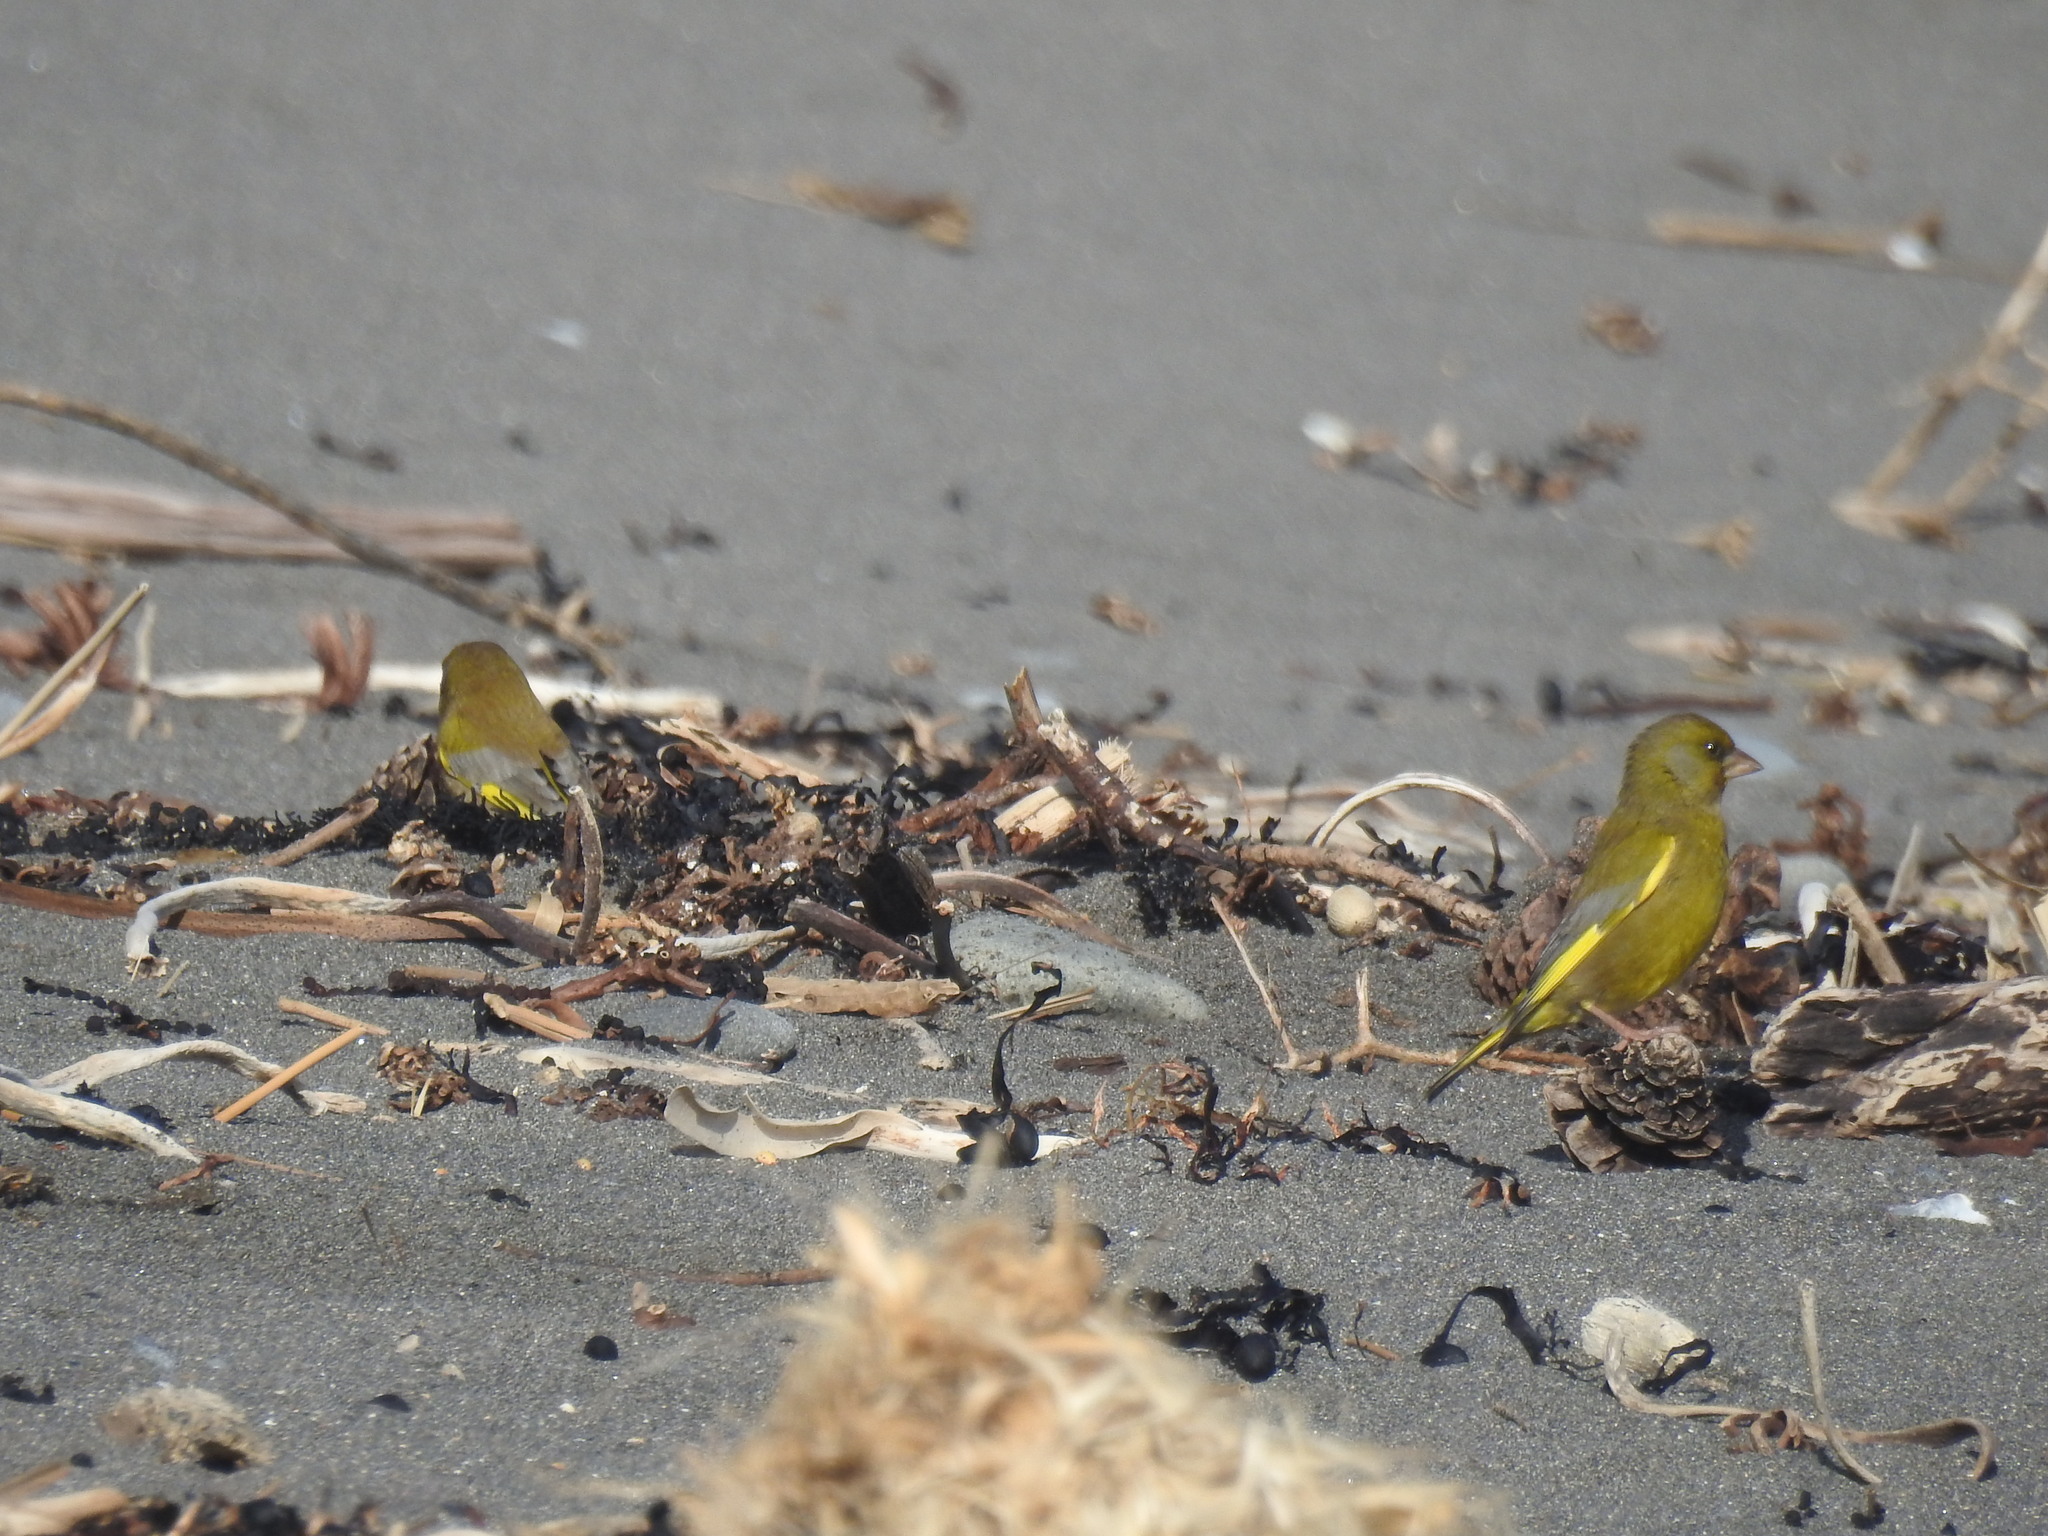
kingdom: Plantae
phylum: Tracheophyta
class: Liliopsida
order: Poales
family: Poaceae
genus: Chloris
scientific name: Chloris chloris
